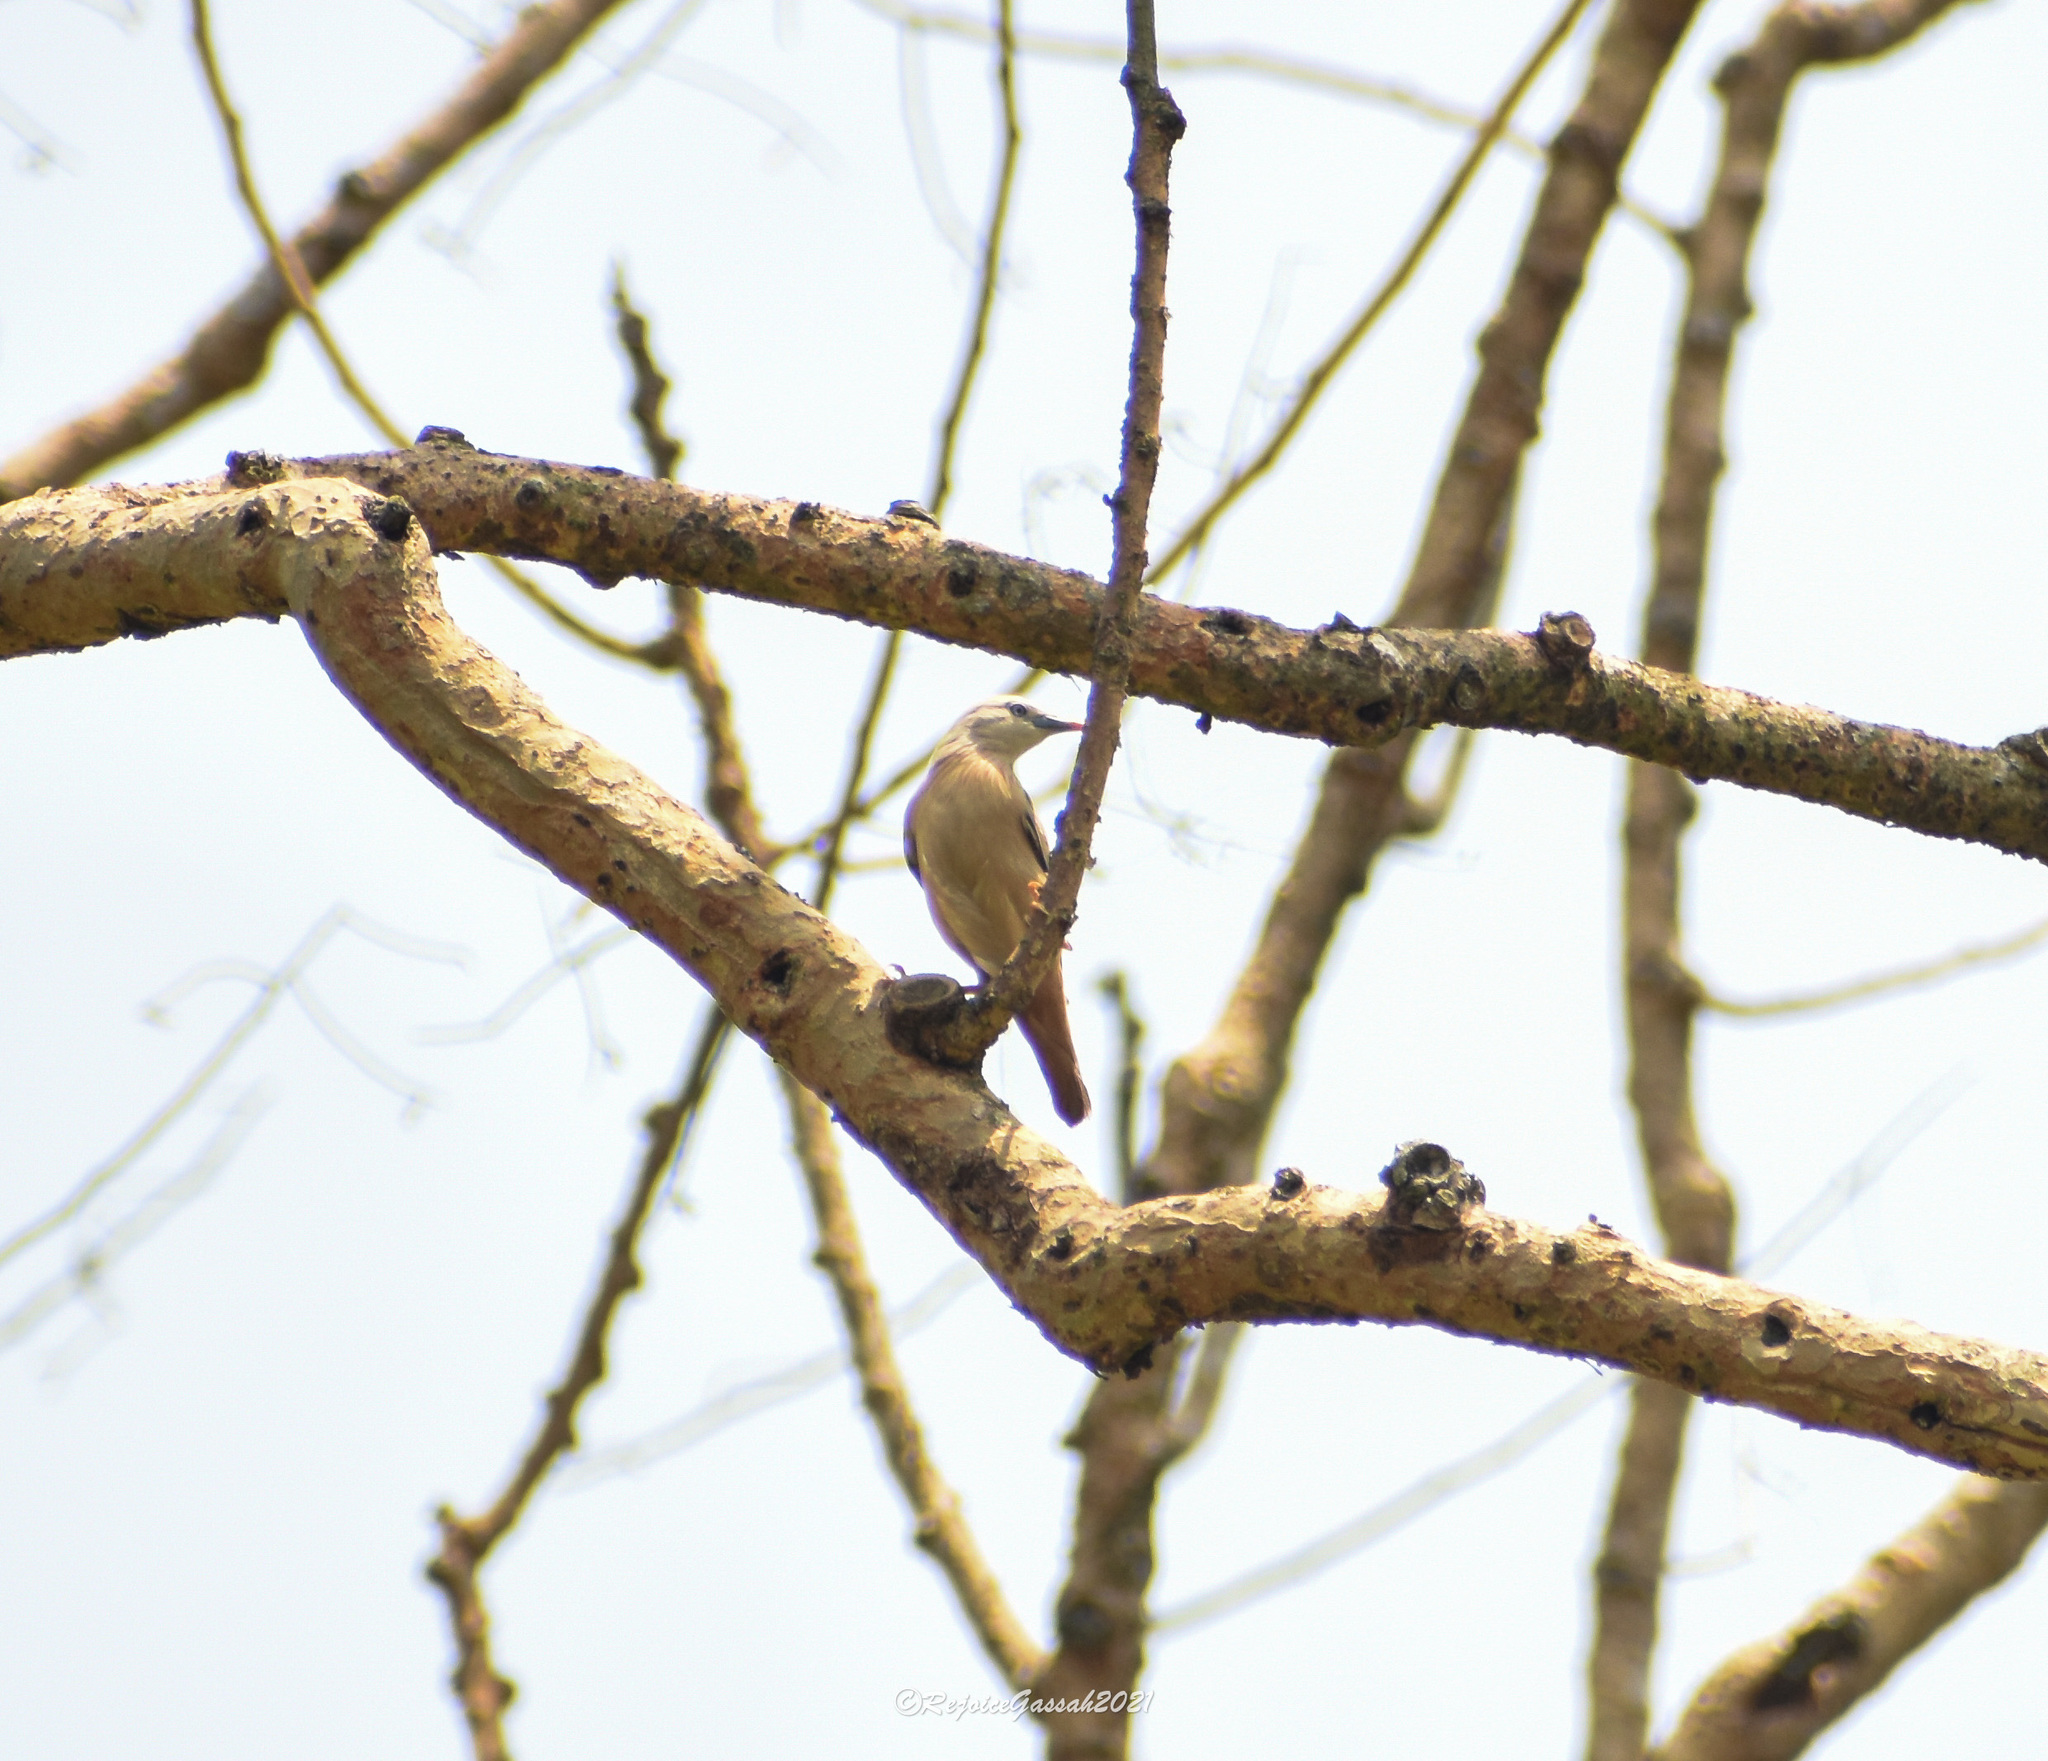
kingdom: Animalia
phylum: Chordata
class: Aves
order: Passeriformes
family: Sturnidae
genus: Sturnia
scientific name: Sturnia malabarica
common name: Chestnut-tailed starling
